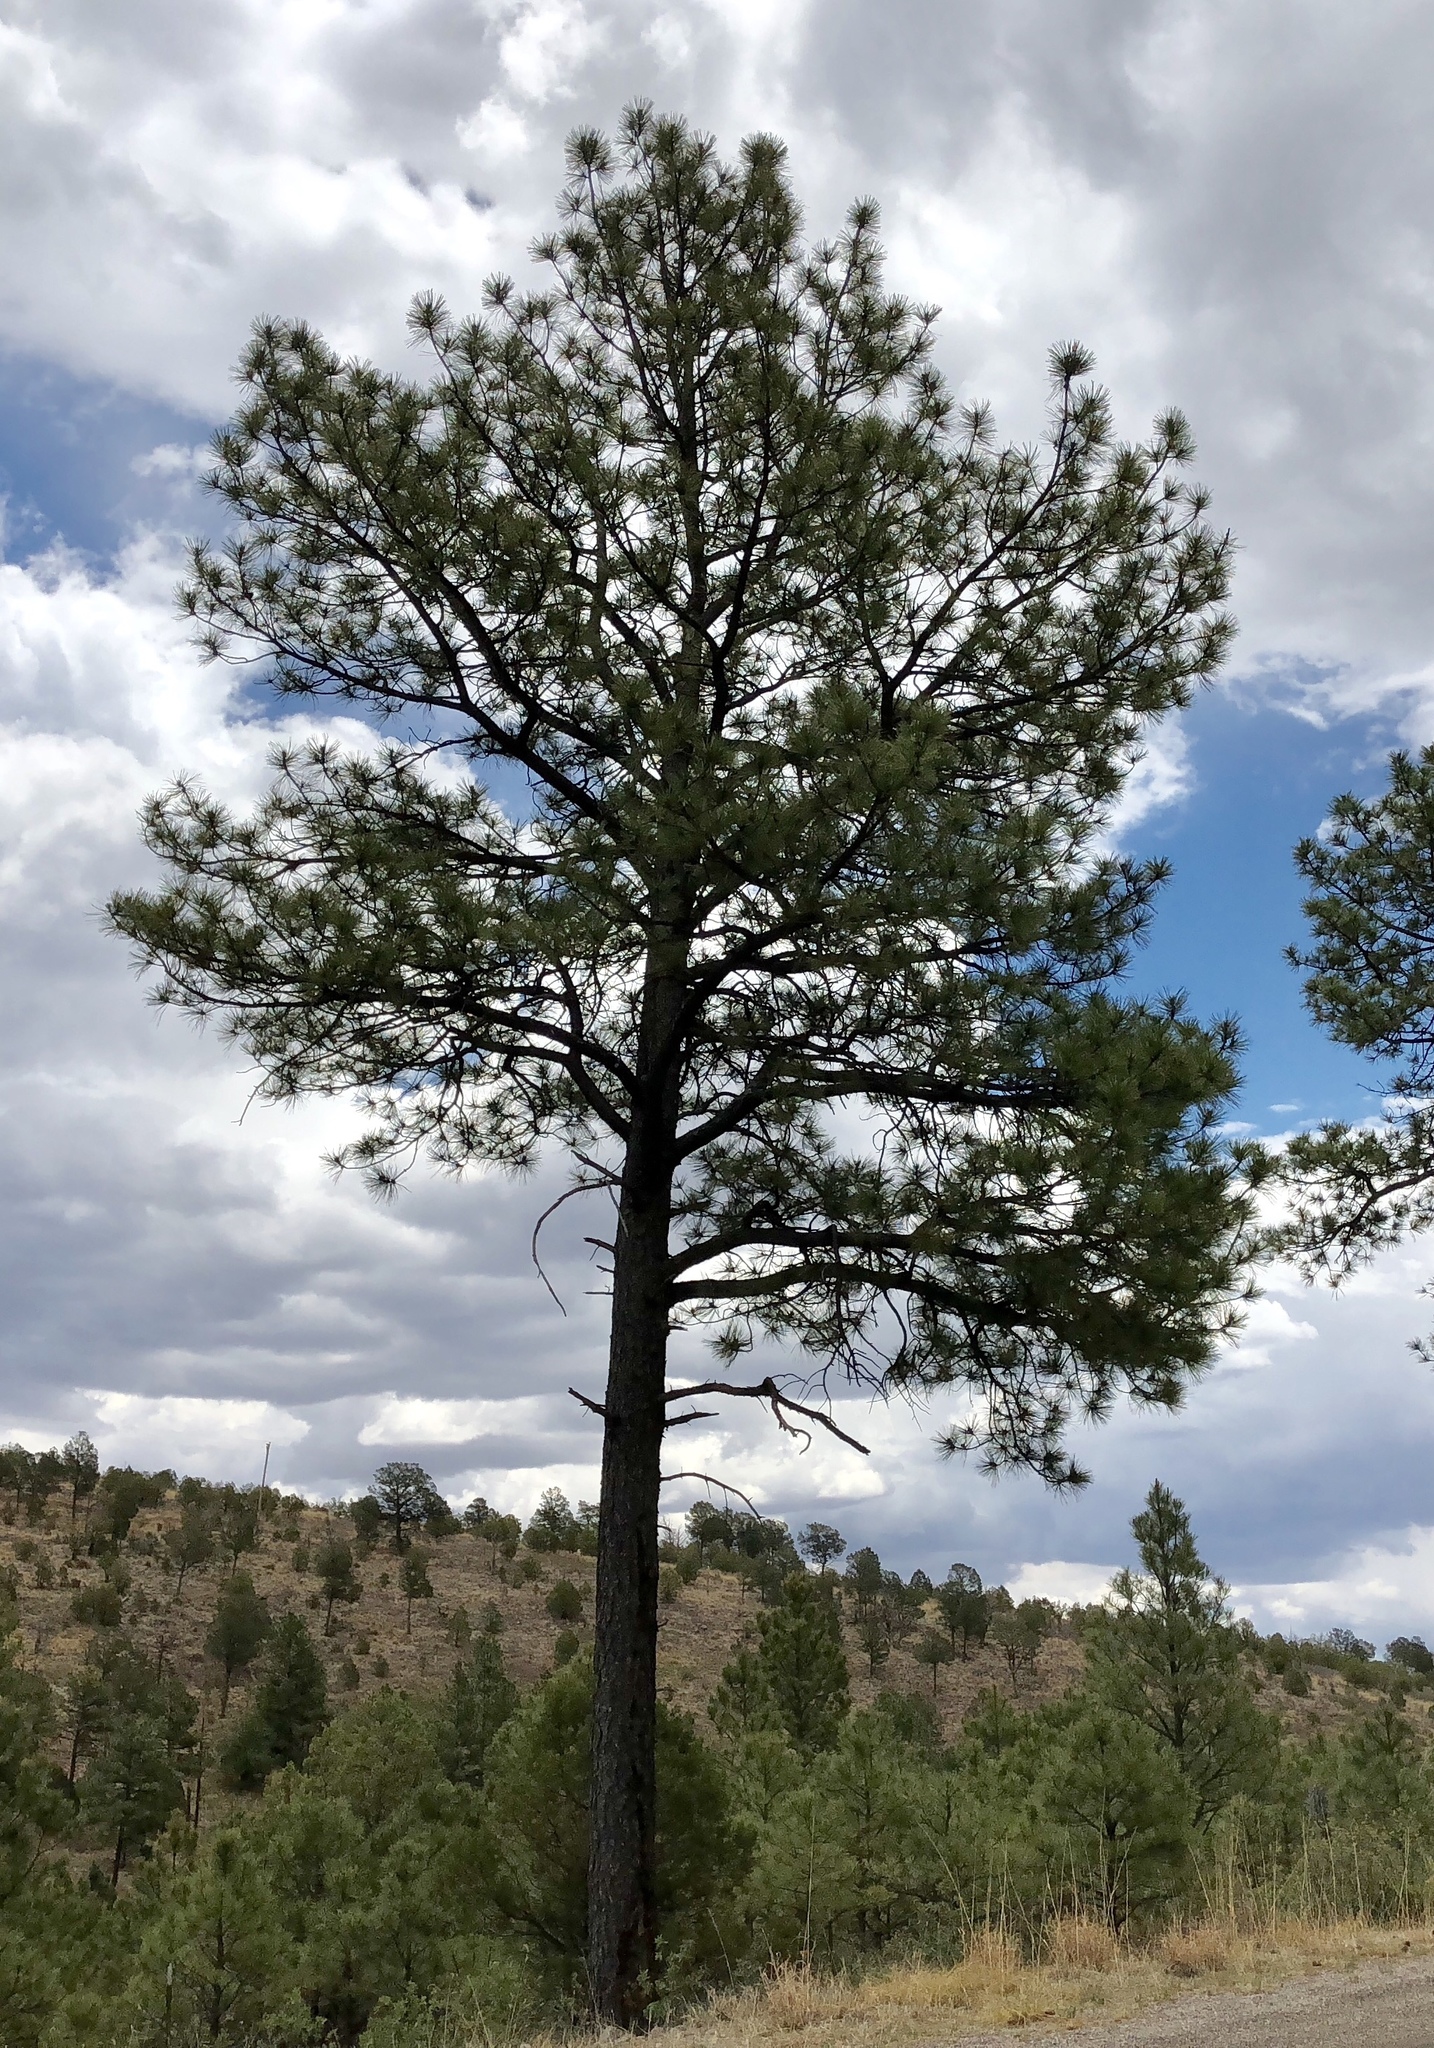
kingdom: Plantae
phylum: Tracheophyta
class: Pinopsida
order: Pinales
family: Pinaceae
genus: Pinus
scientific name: Pinus ponderosa
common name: Western yellow-pine
